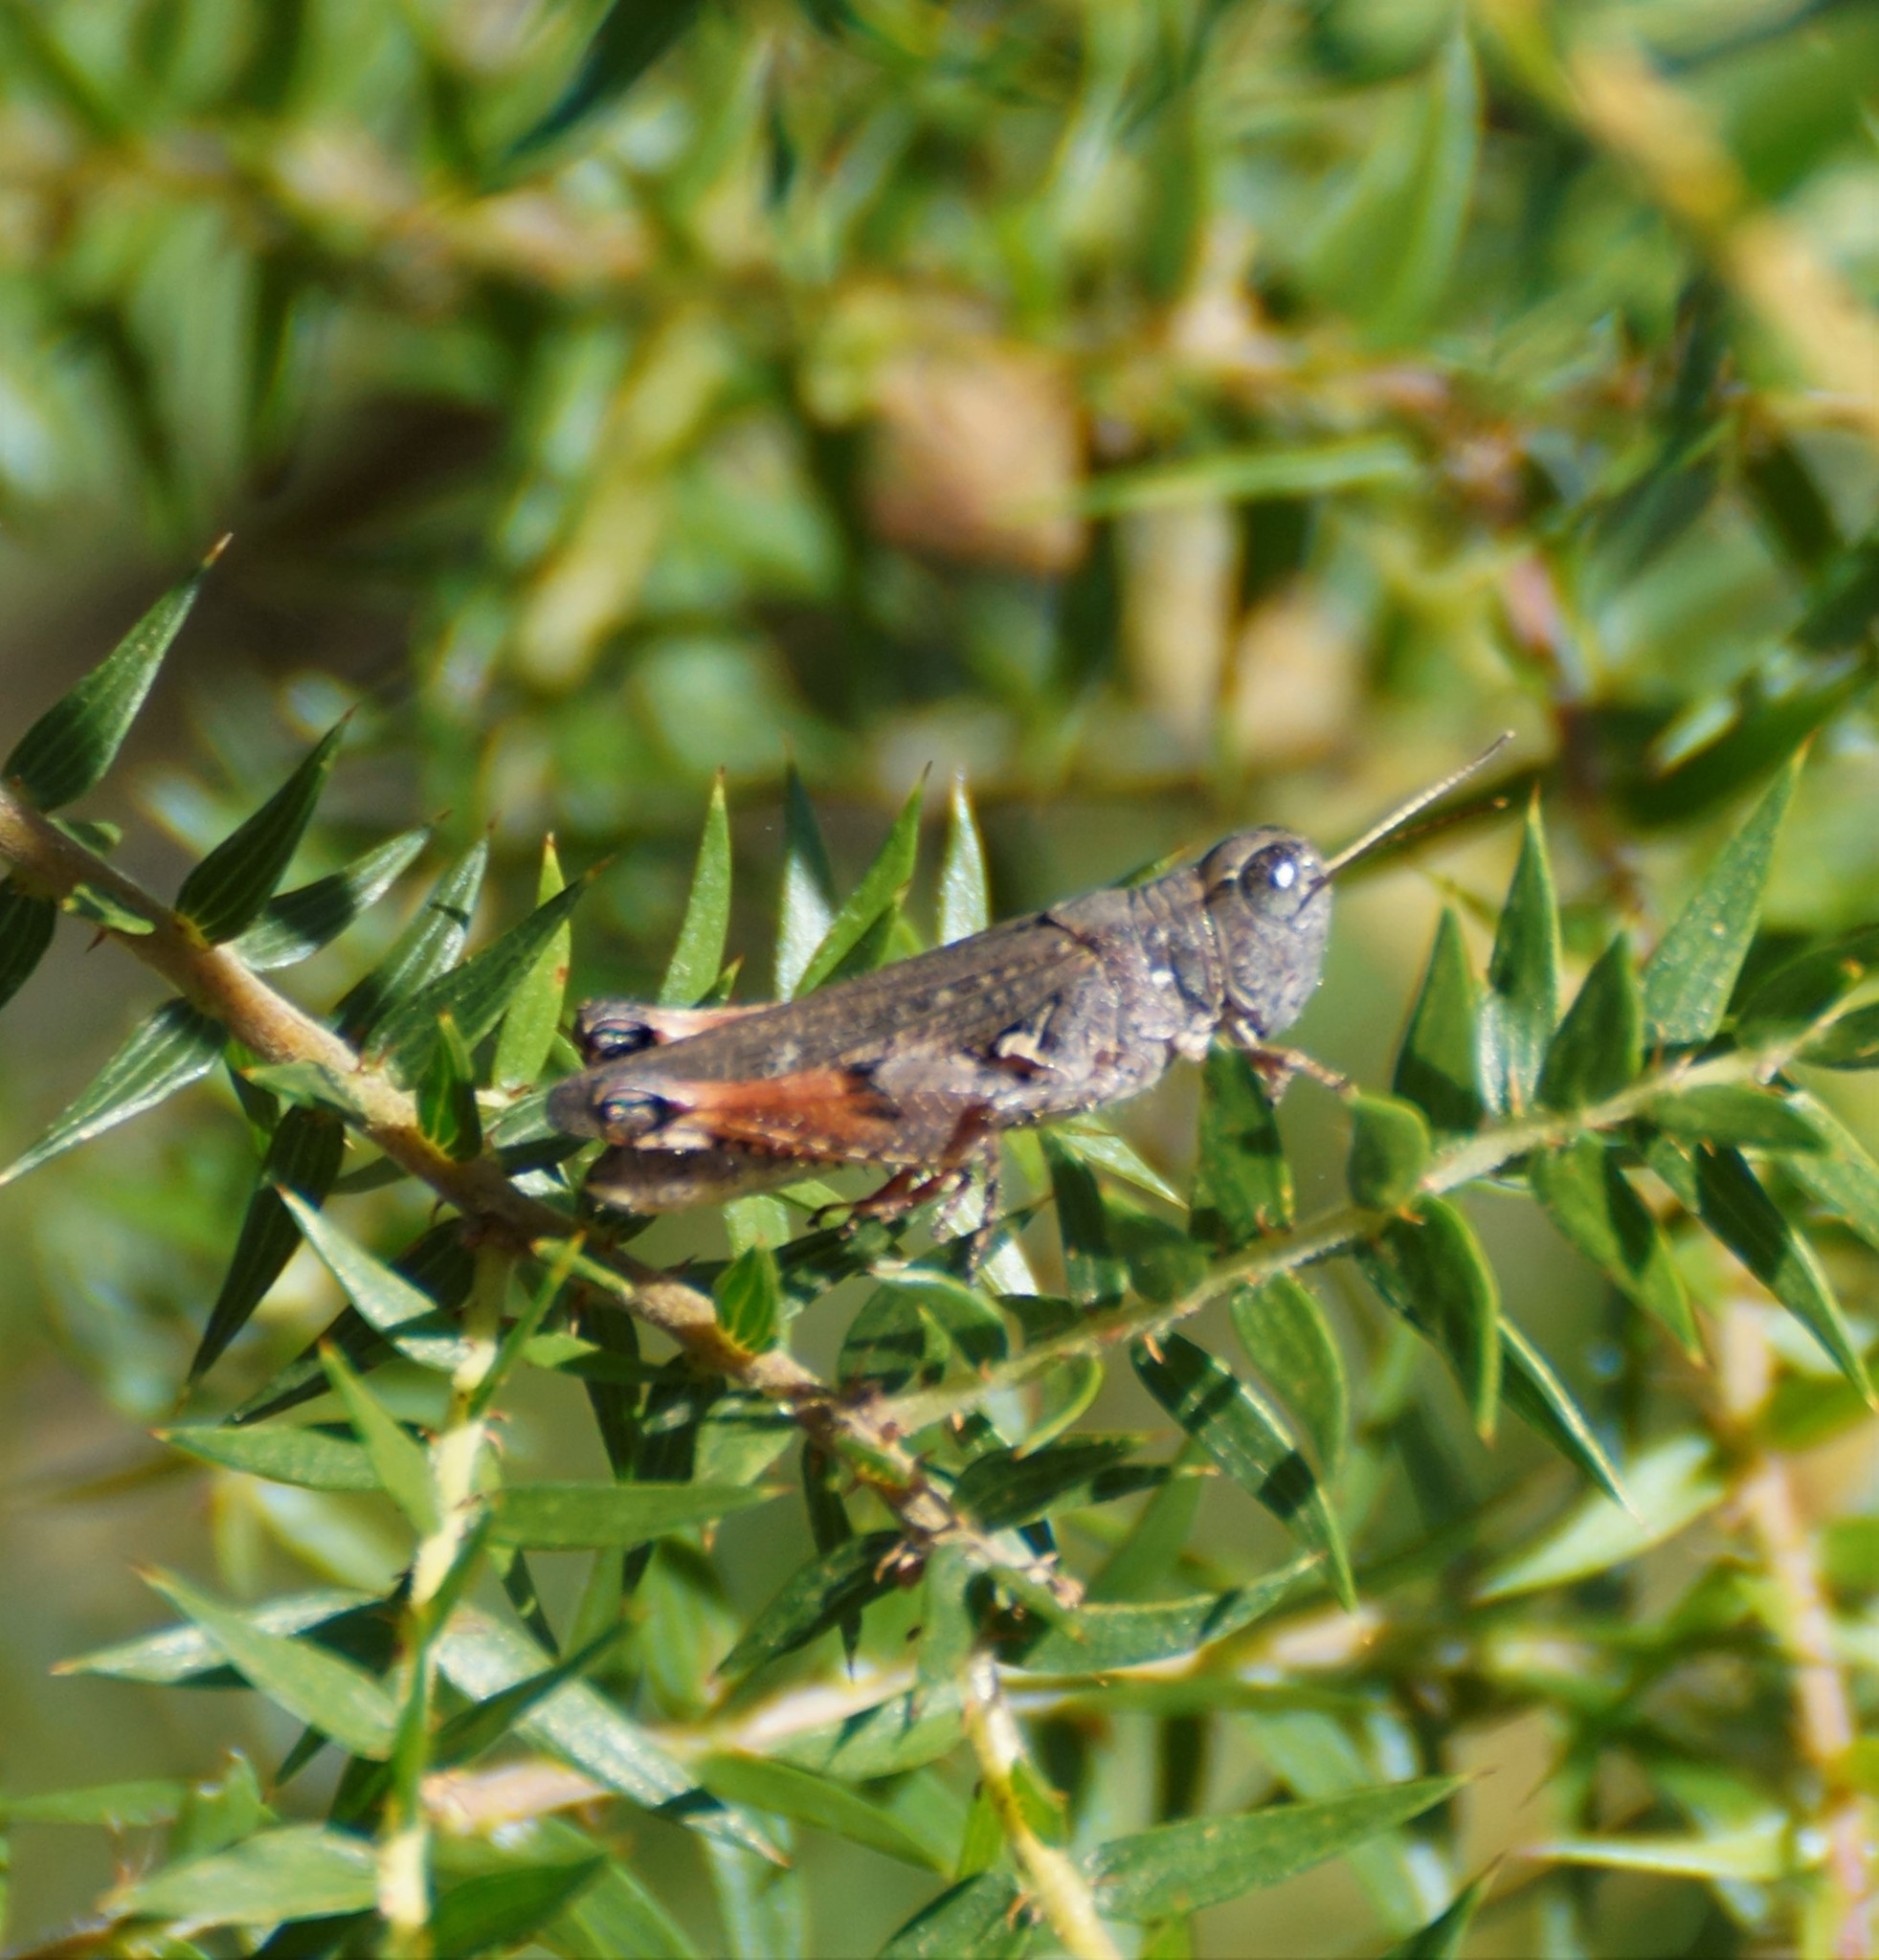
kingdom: Animalia
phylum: Arthropoda
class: Insecta
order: Orthoptera
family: Acrididae
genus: Exarna
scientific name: Exarna includens
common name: Red-legged exarna
